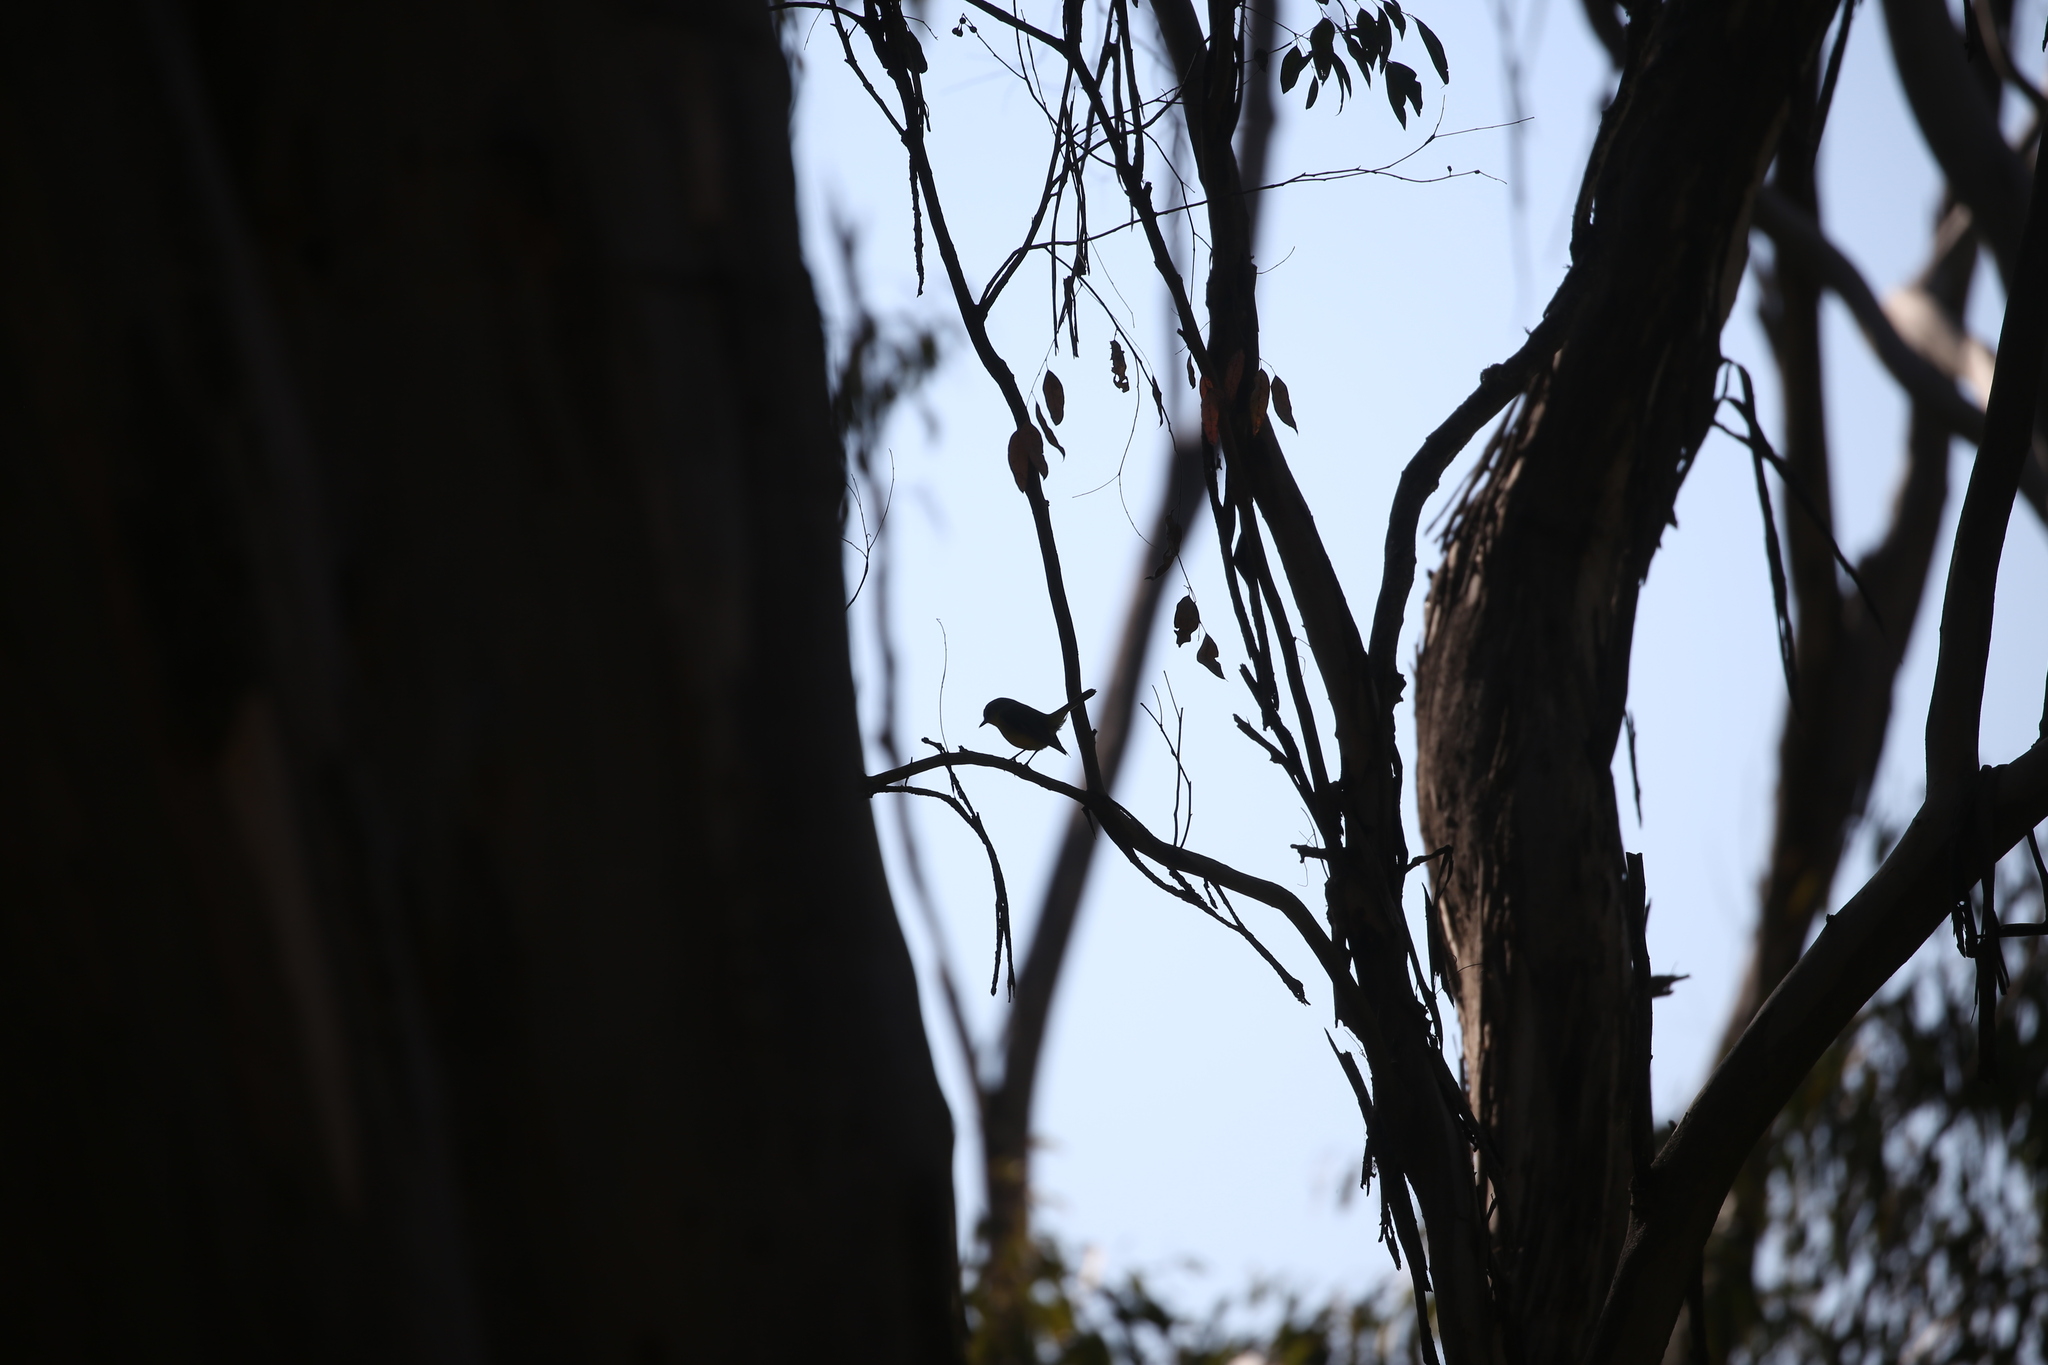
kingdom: Animalia
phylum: Chordata
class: Aves
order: Passeriformes
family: Petroicidae
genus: Eopsaltria
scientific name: Eopsaltria australis
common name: Eastern yellow robin
